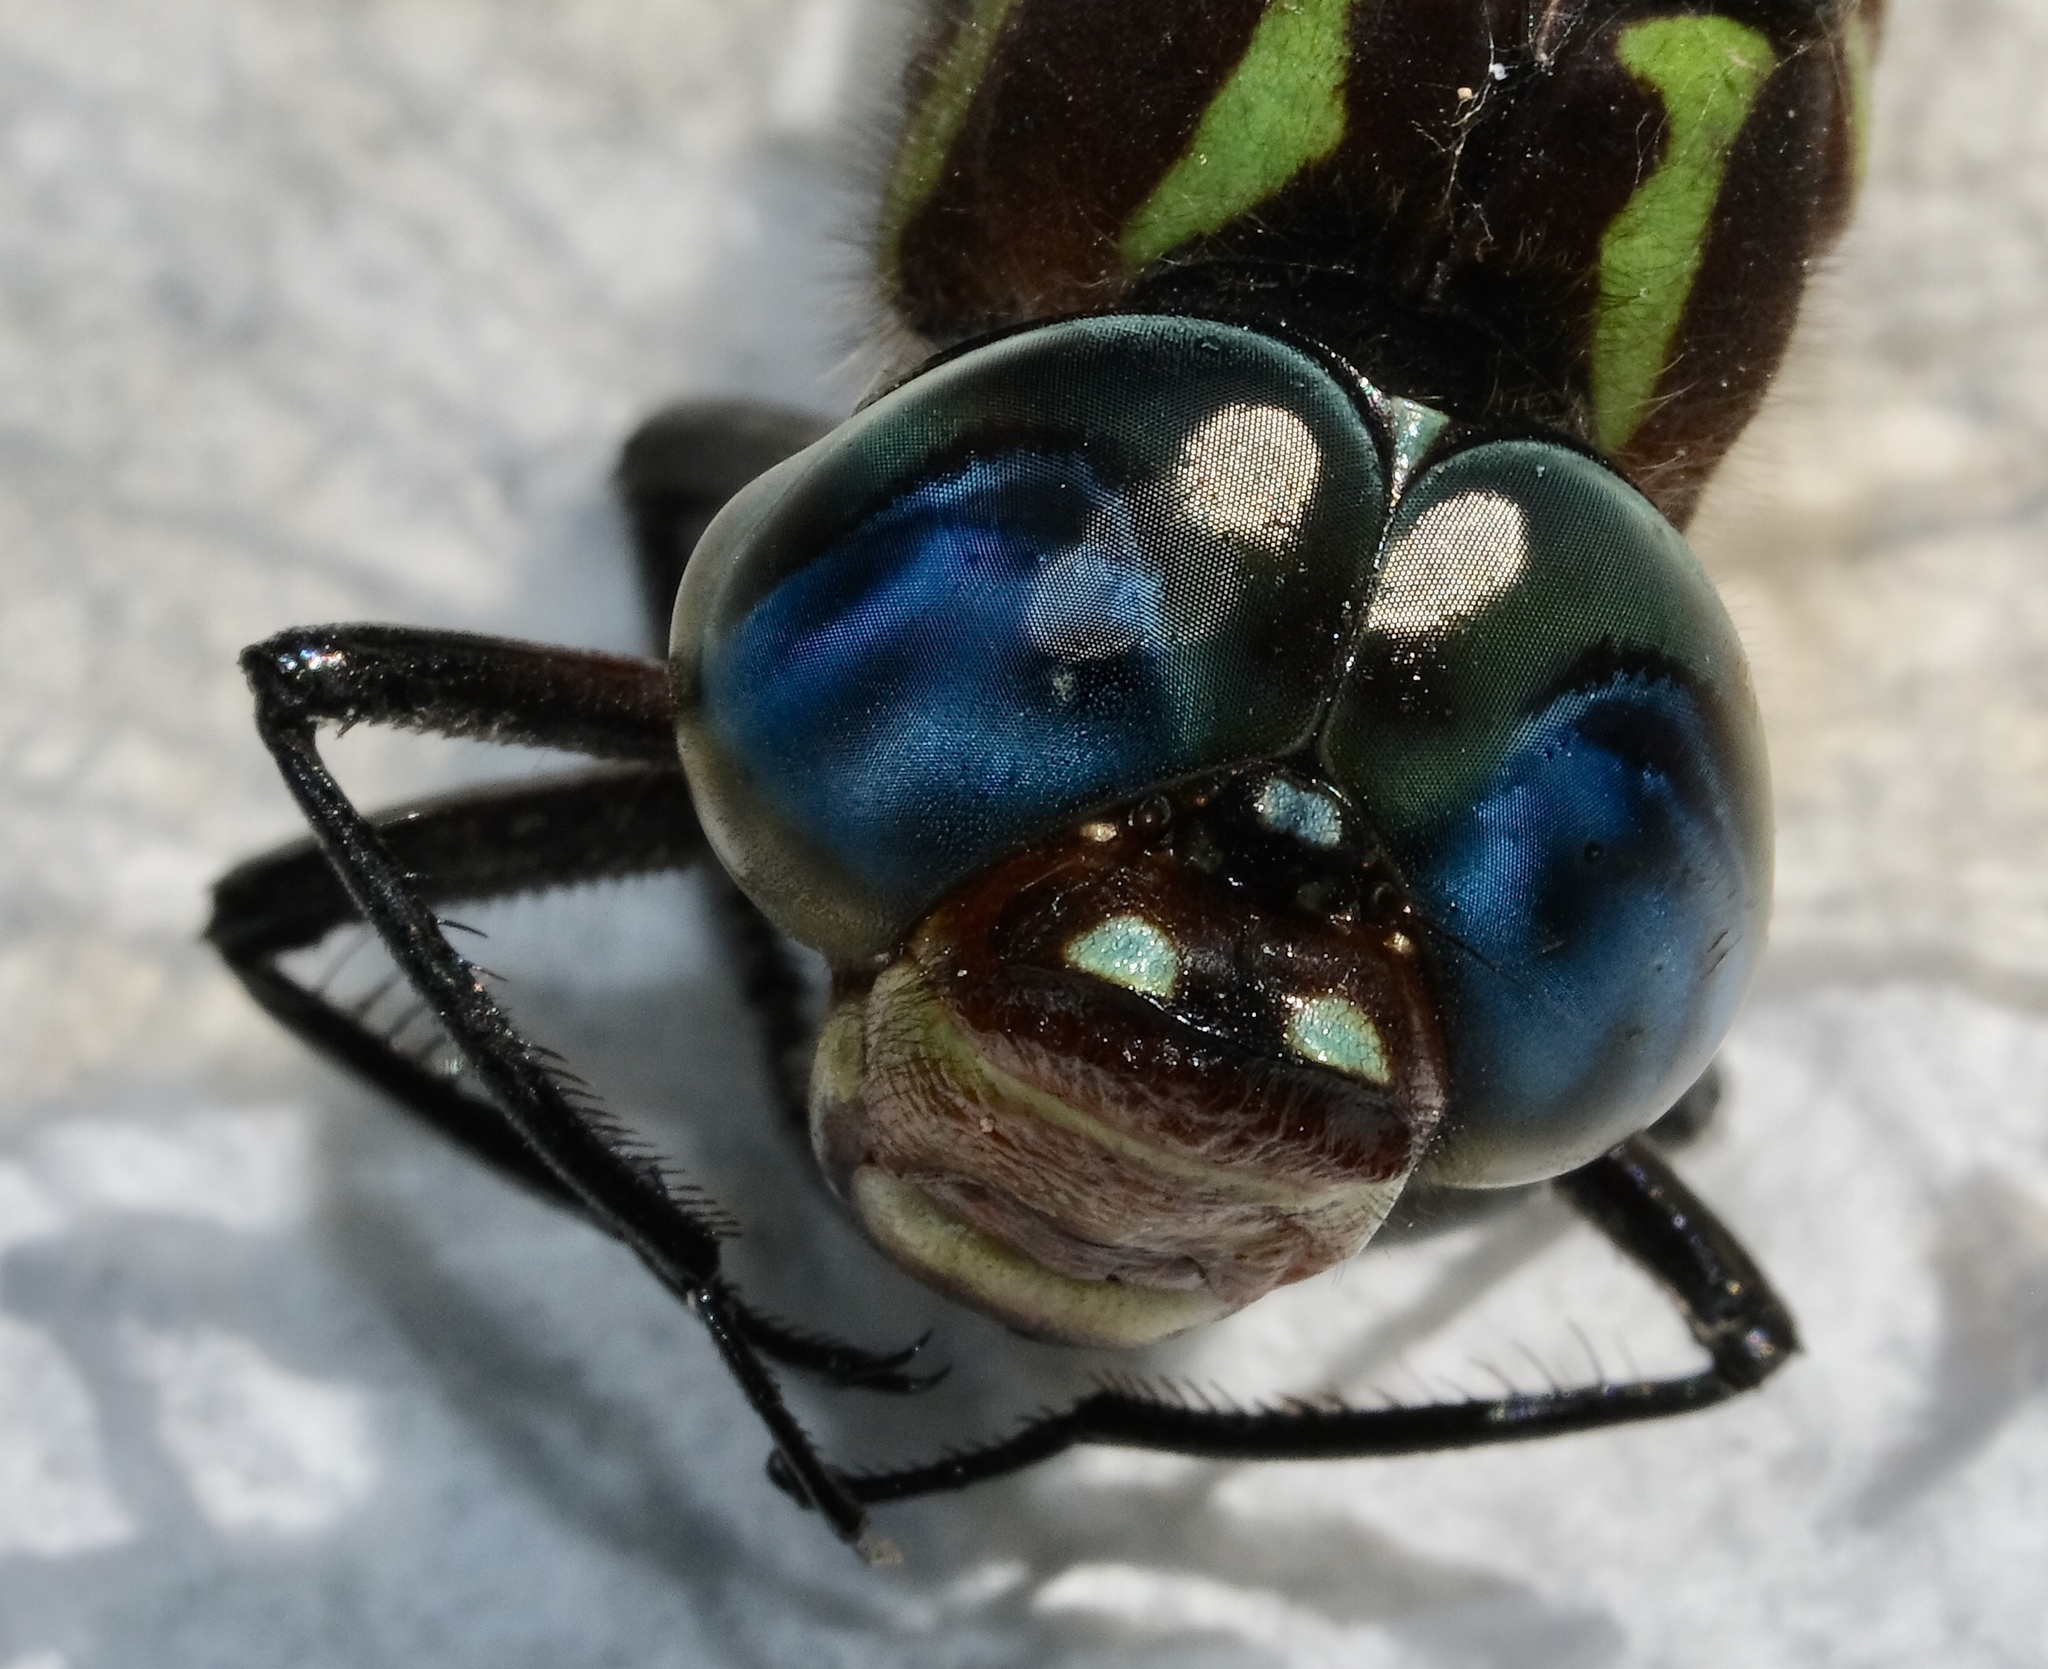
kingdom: Animalia
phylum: Arthropoda
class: Insecta
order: Odonata
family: Aeshnidae
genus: Epiaeschna
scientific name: Epiaeschna heros
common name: Swamp darner
